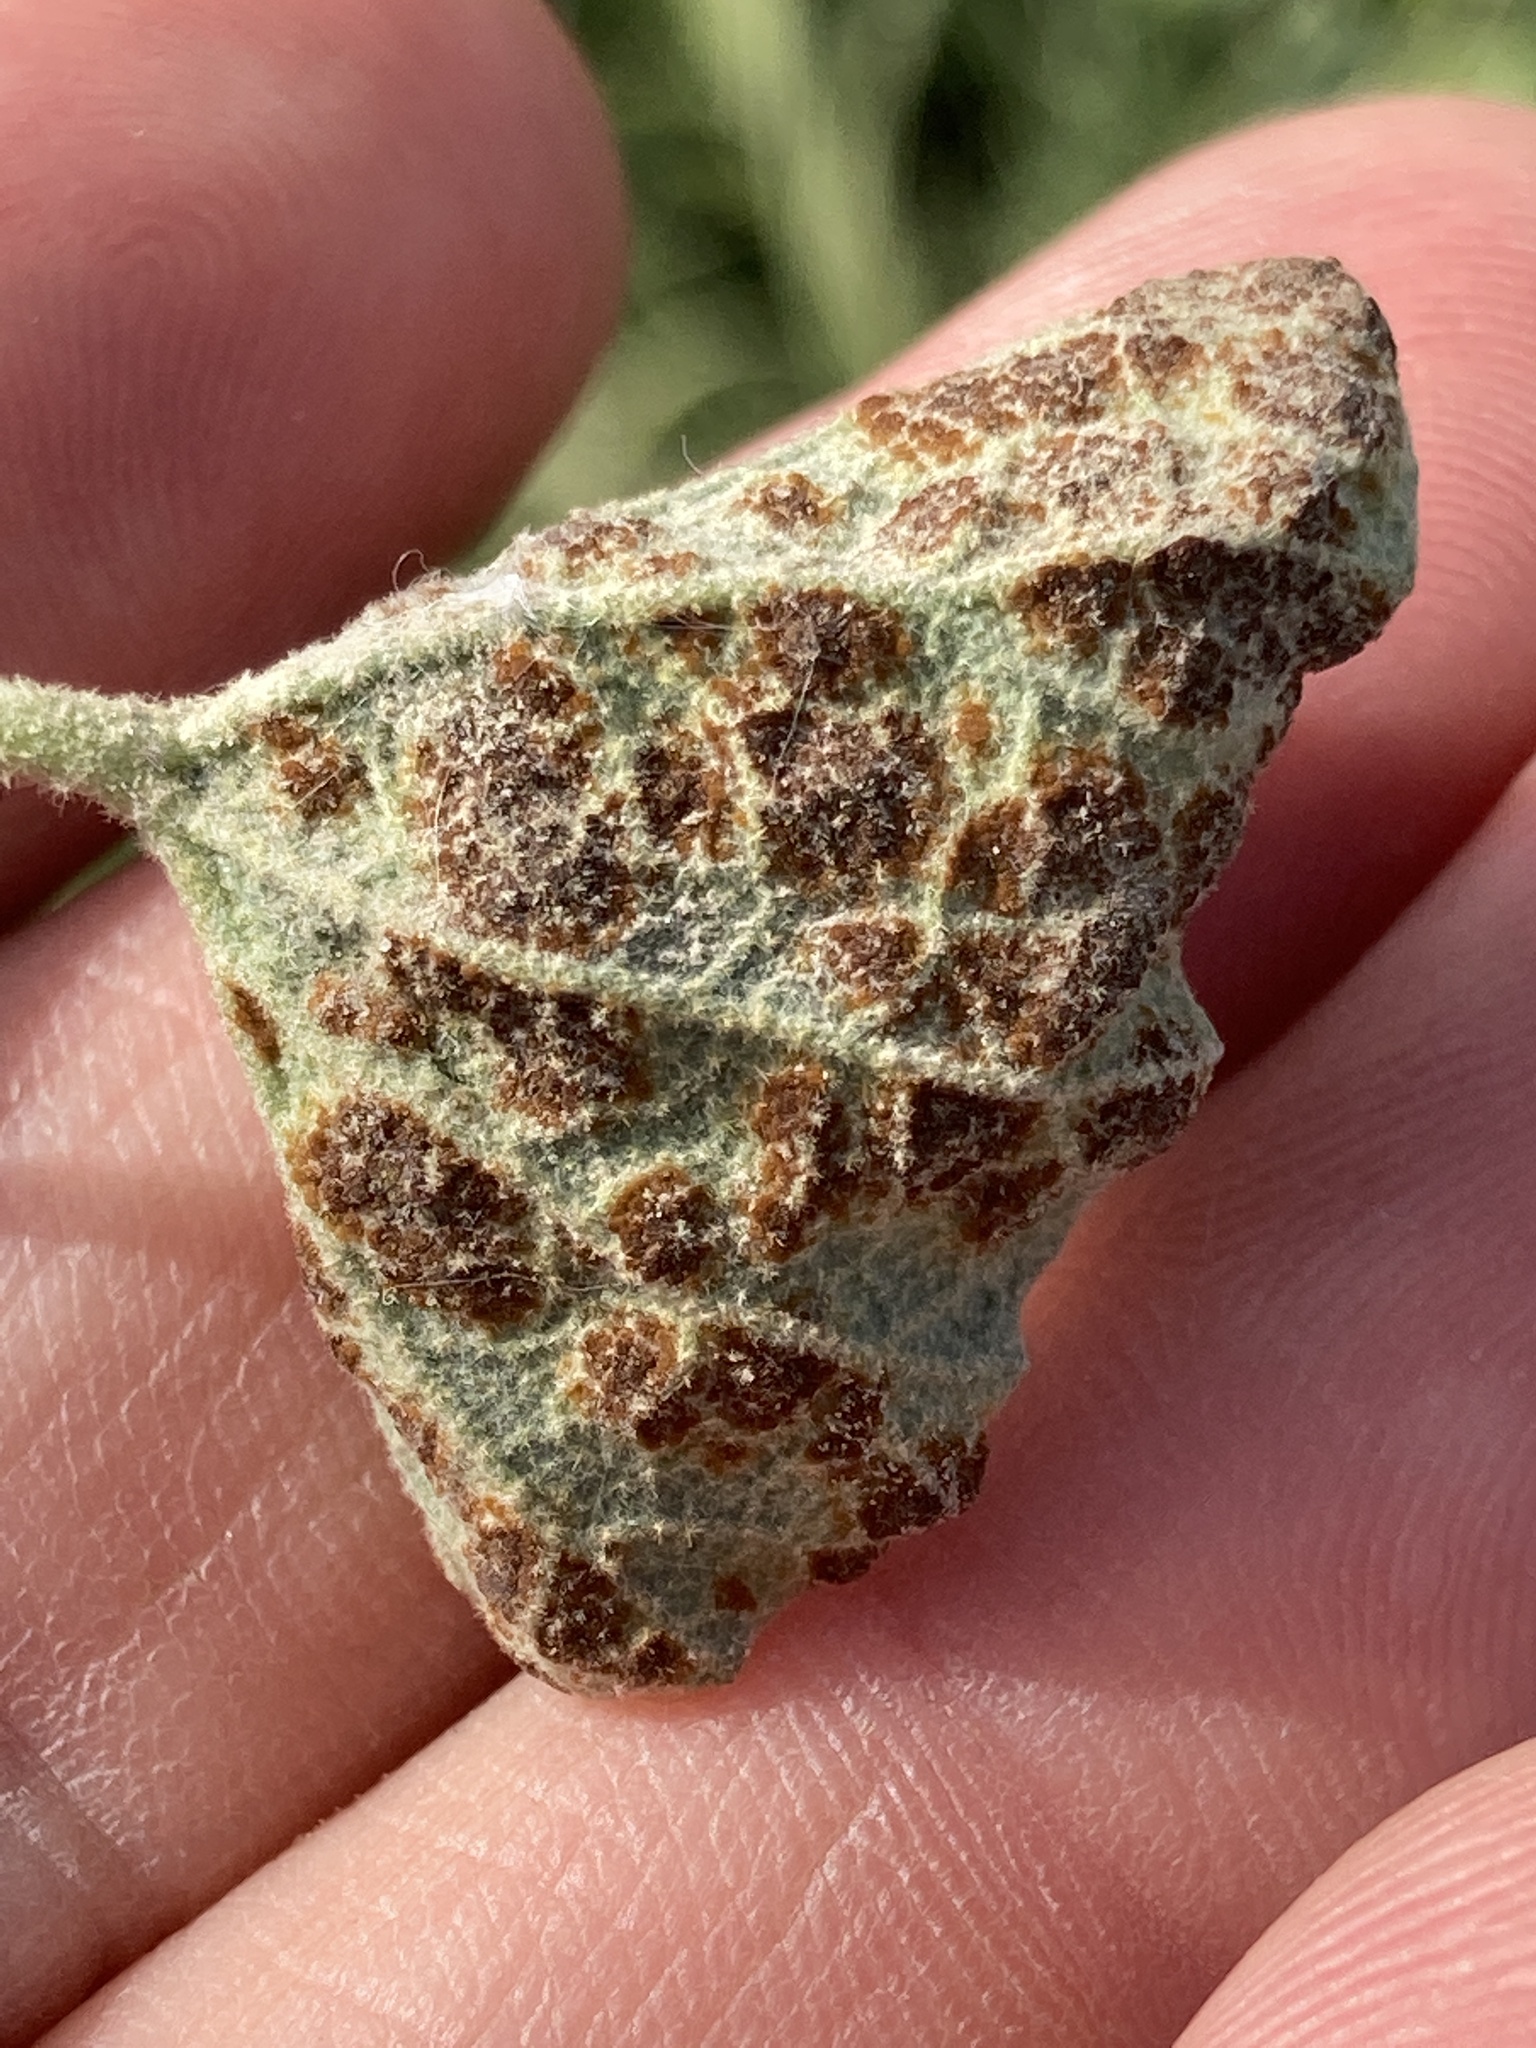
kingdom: Fungi
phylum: Basidiomycota
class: Pucciniomycetes
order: Pucciniales
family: Pucciniaceae
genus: Puccinia
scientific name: Puccinia malvacearum
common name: Hollyhock rust
